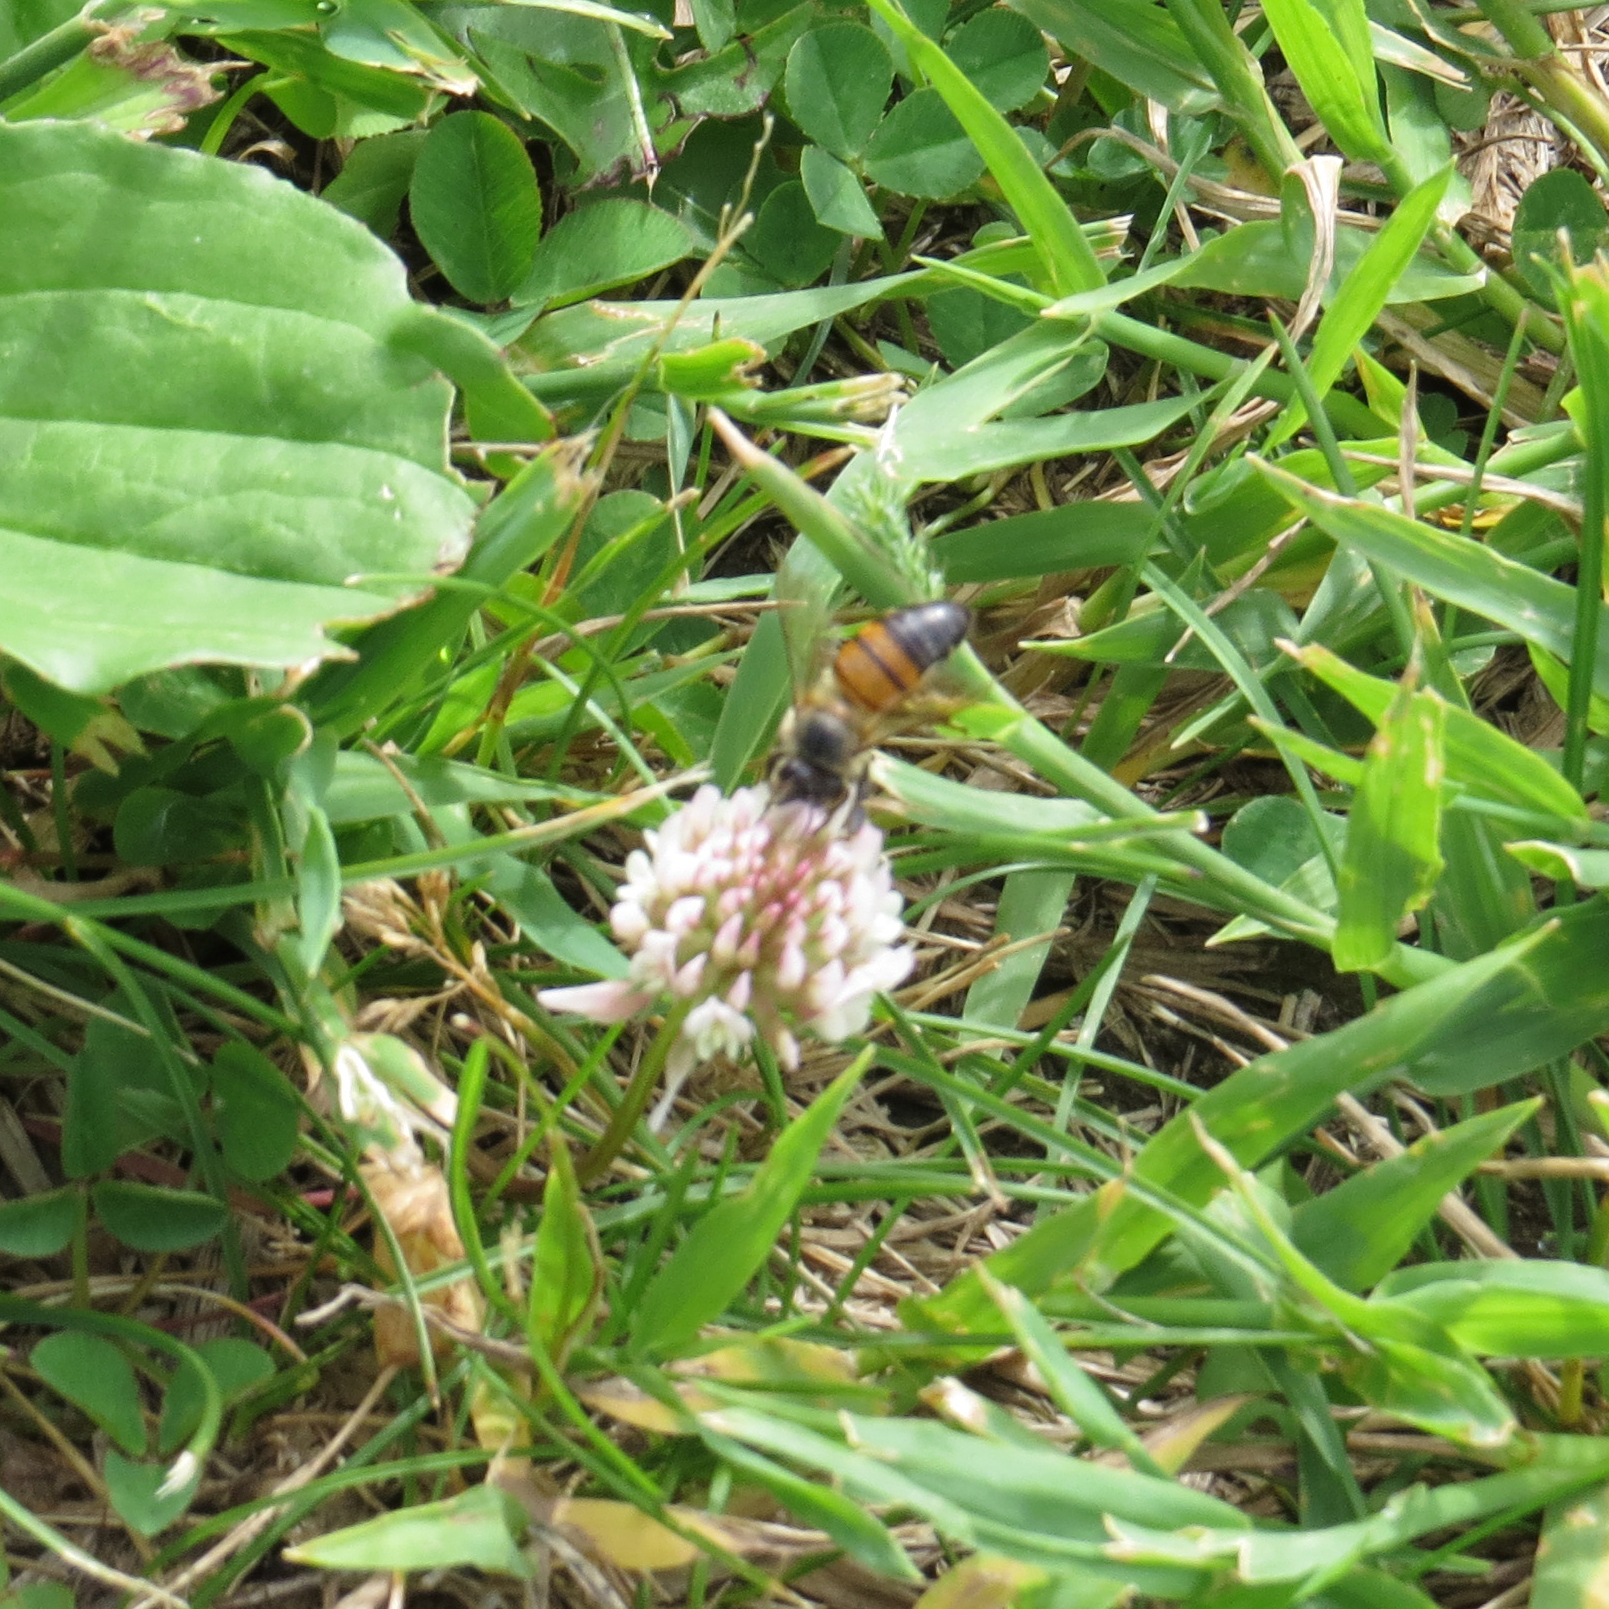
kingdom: Animalia
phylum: Arthropoda
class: Insecta
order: Hymenoptera
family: Apidae
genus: Apis
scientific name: Apis mellifera
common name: Honey bee
